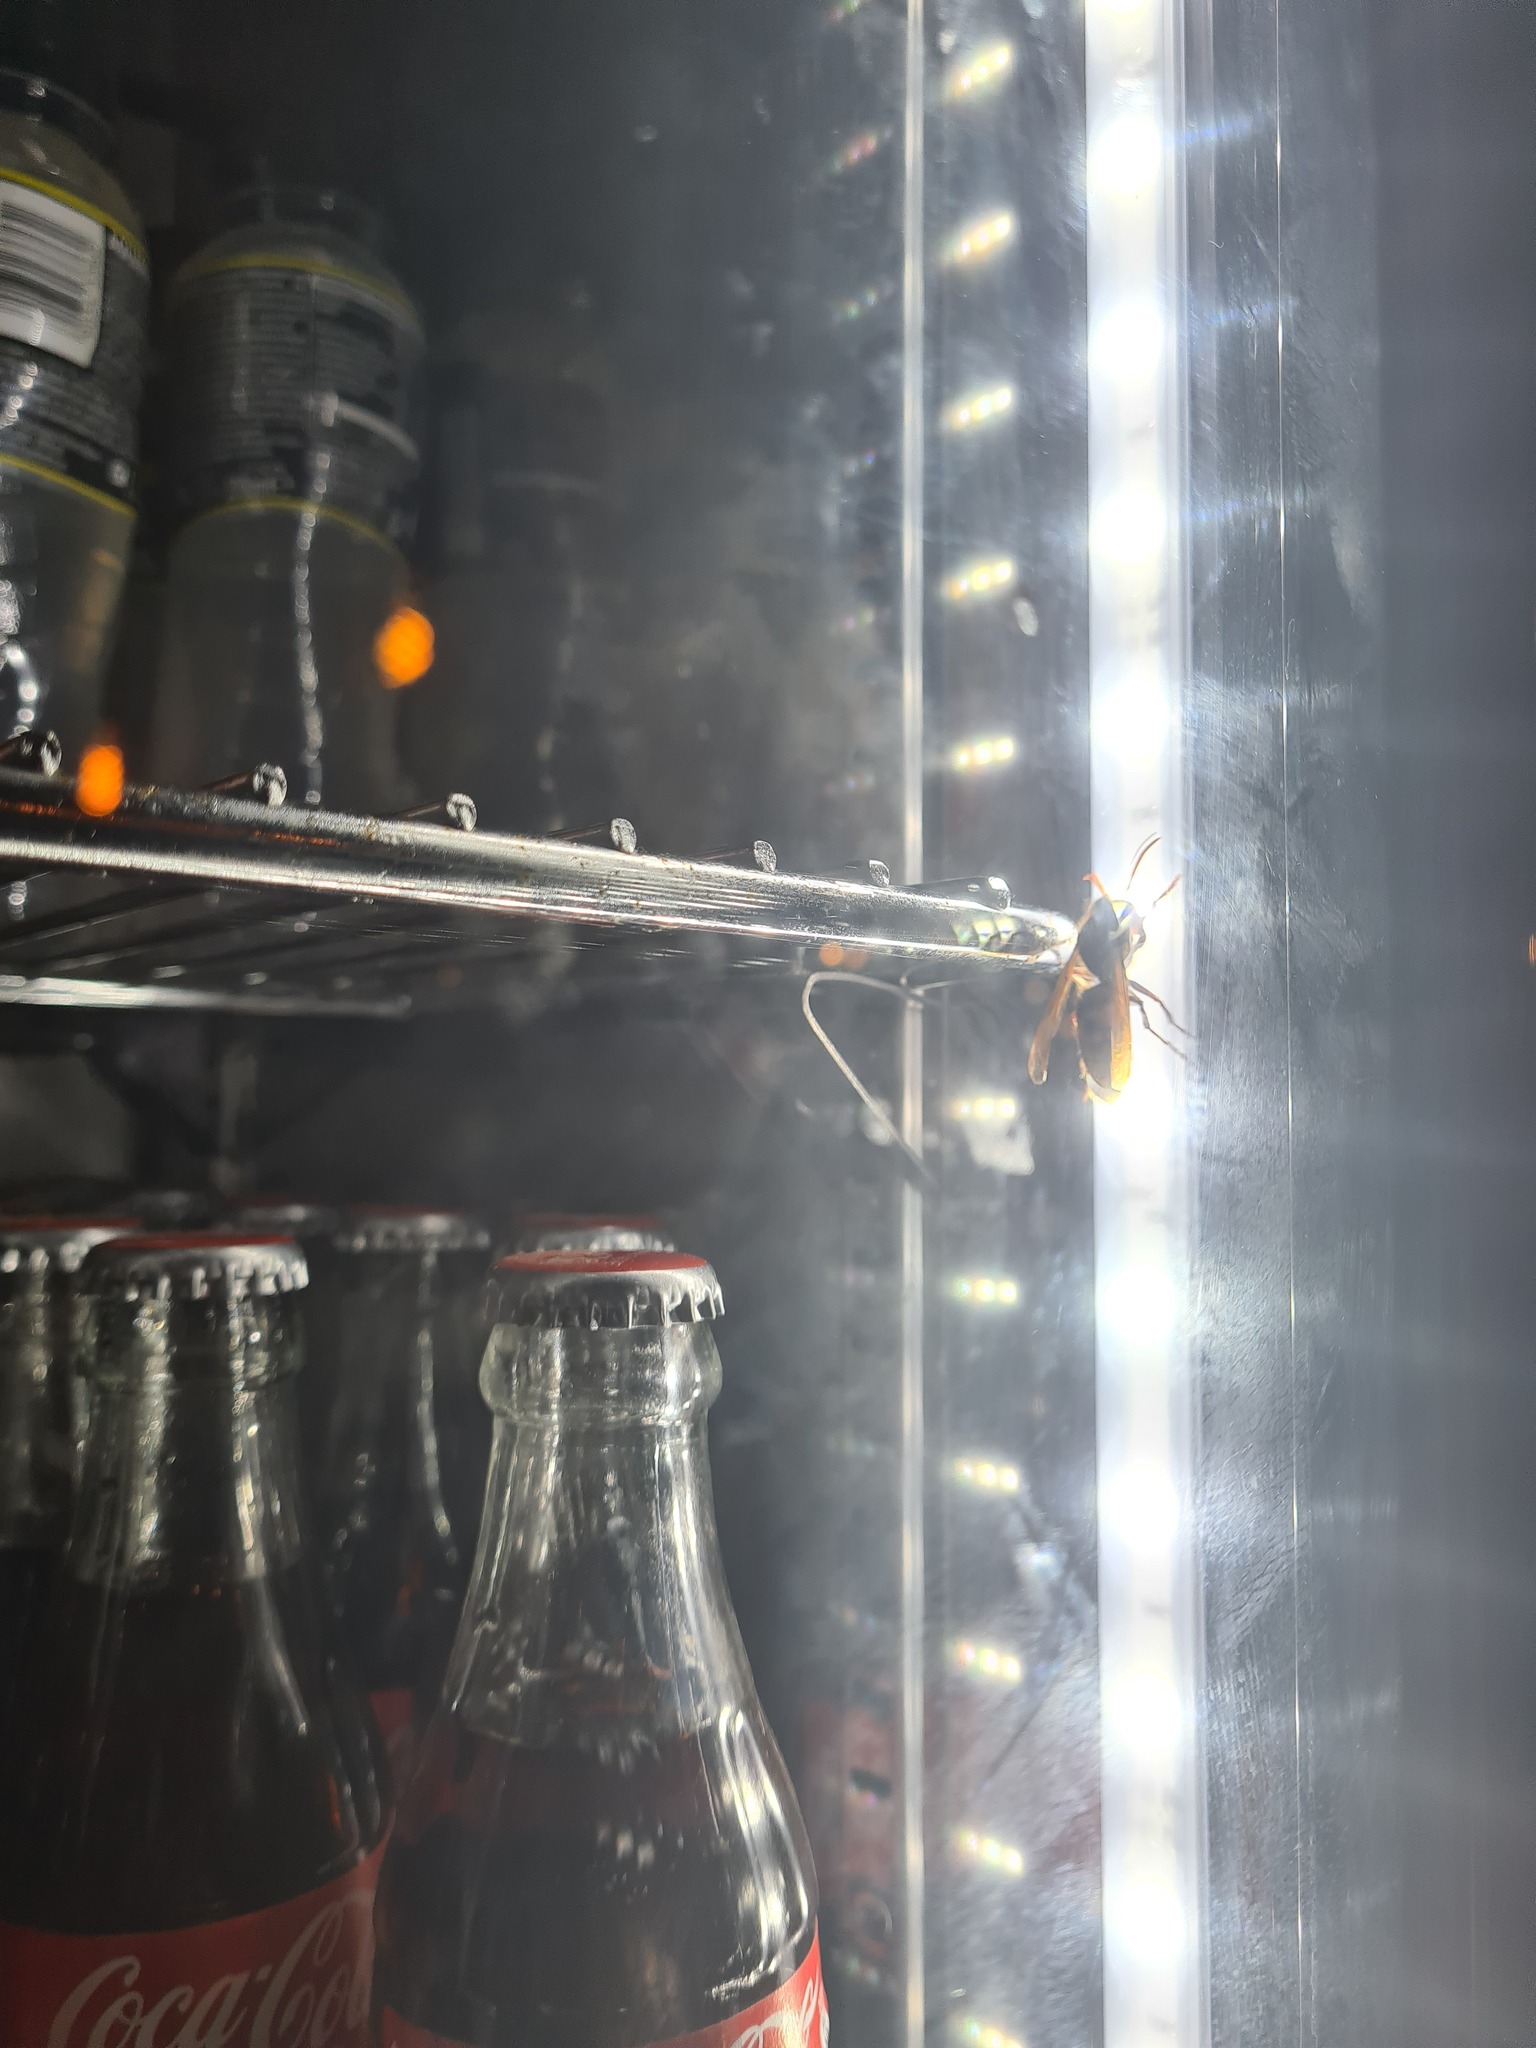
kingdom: Animalia
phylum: Arthropoda
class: Insecta
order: Hymenoptera
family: Vespidae
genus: Vespa
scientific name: Vespa crabro
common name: Hornet
